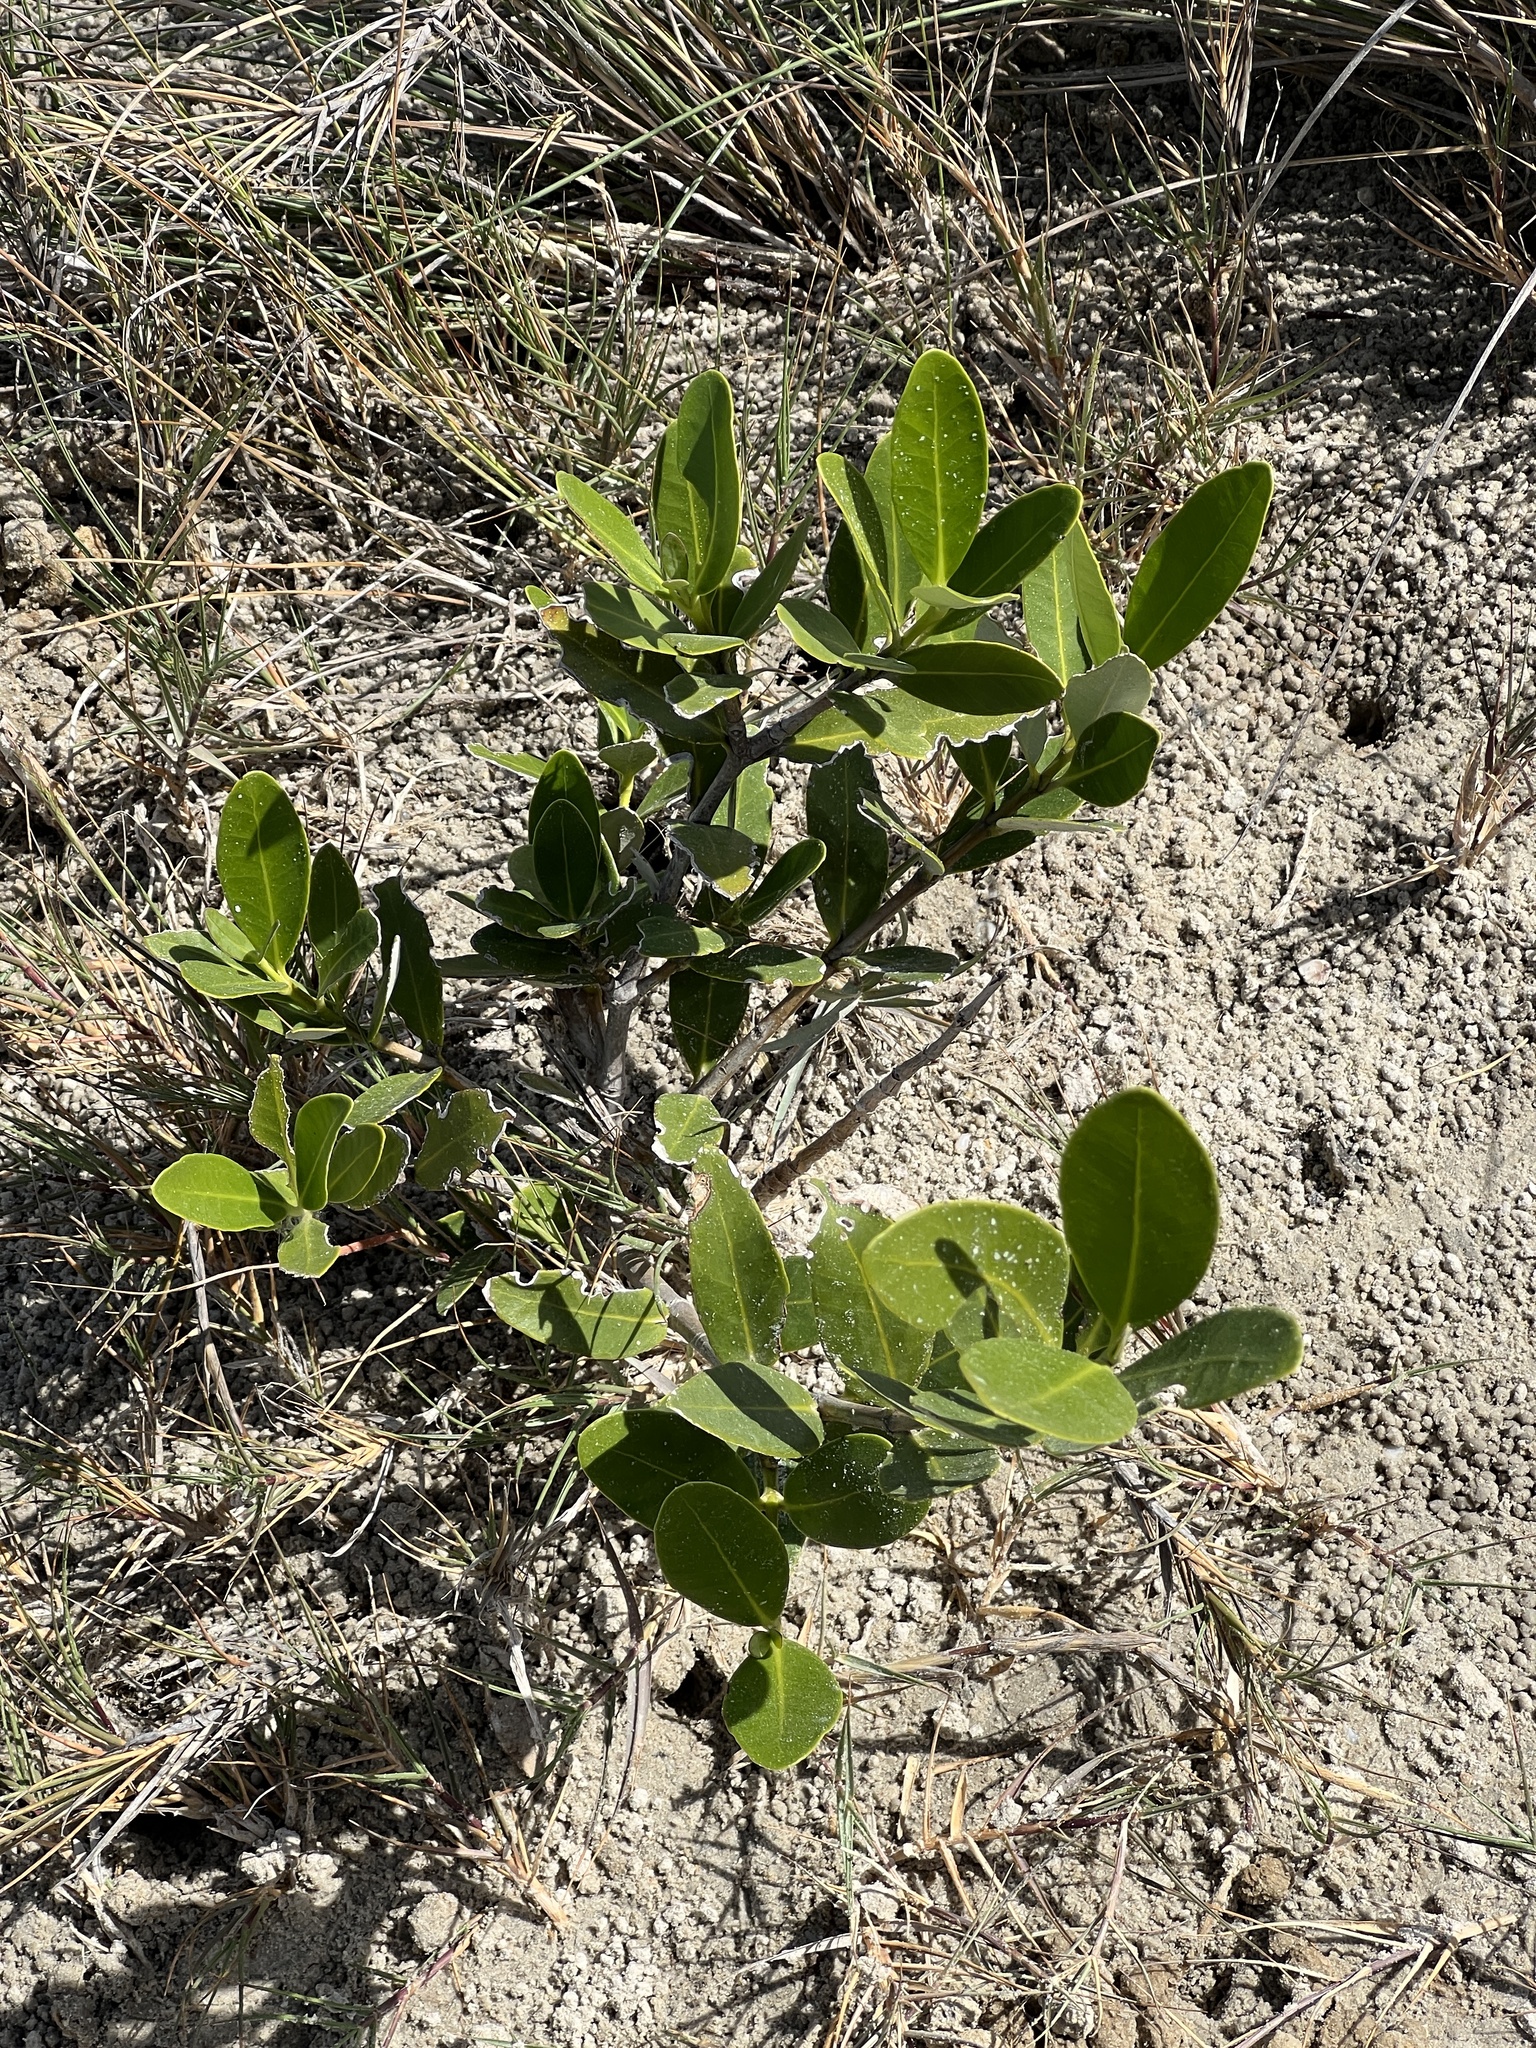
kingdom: Plantae
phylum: Tracheophyta
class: Magnoliopsida
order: Lamiales
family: Acanthaceae
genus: Avicennia
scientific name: Avicennia germinans
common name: Black mangrove
